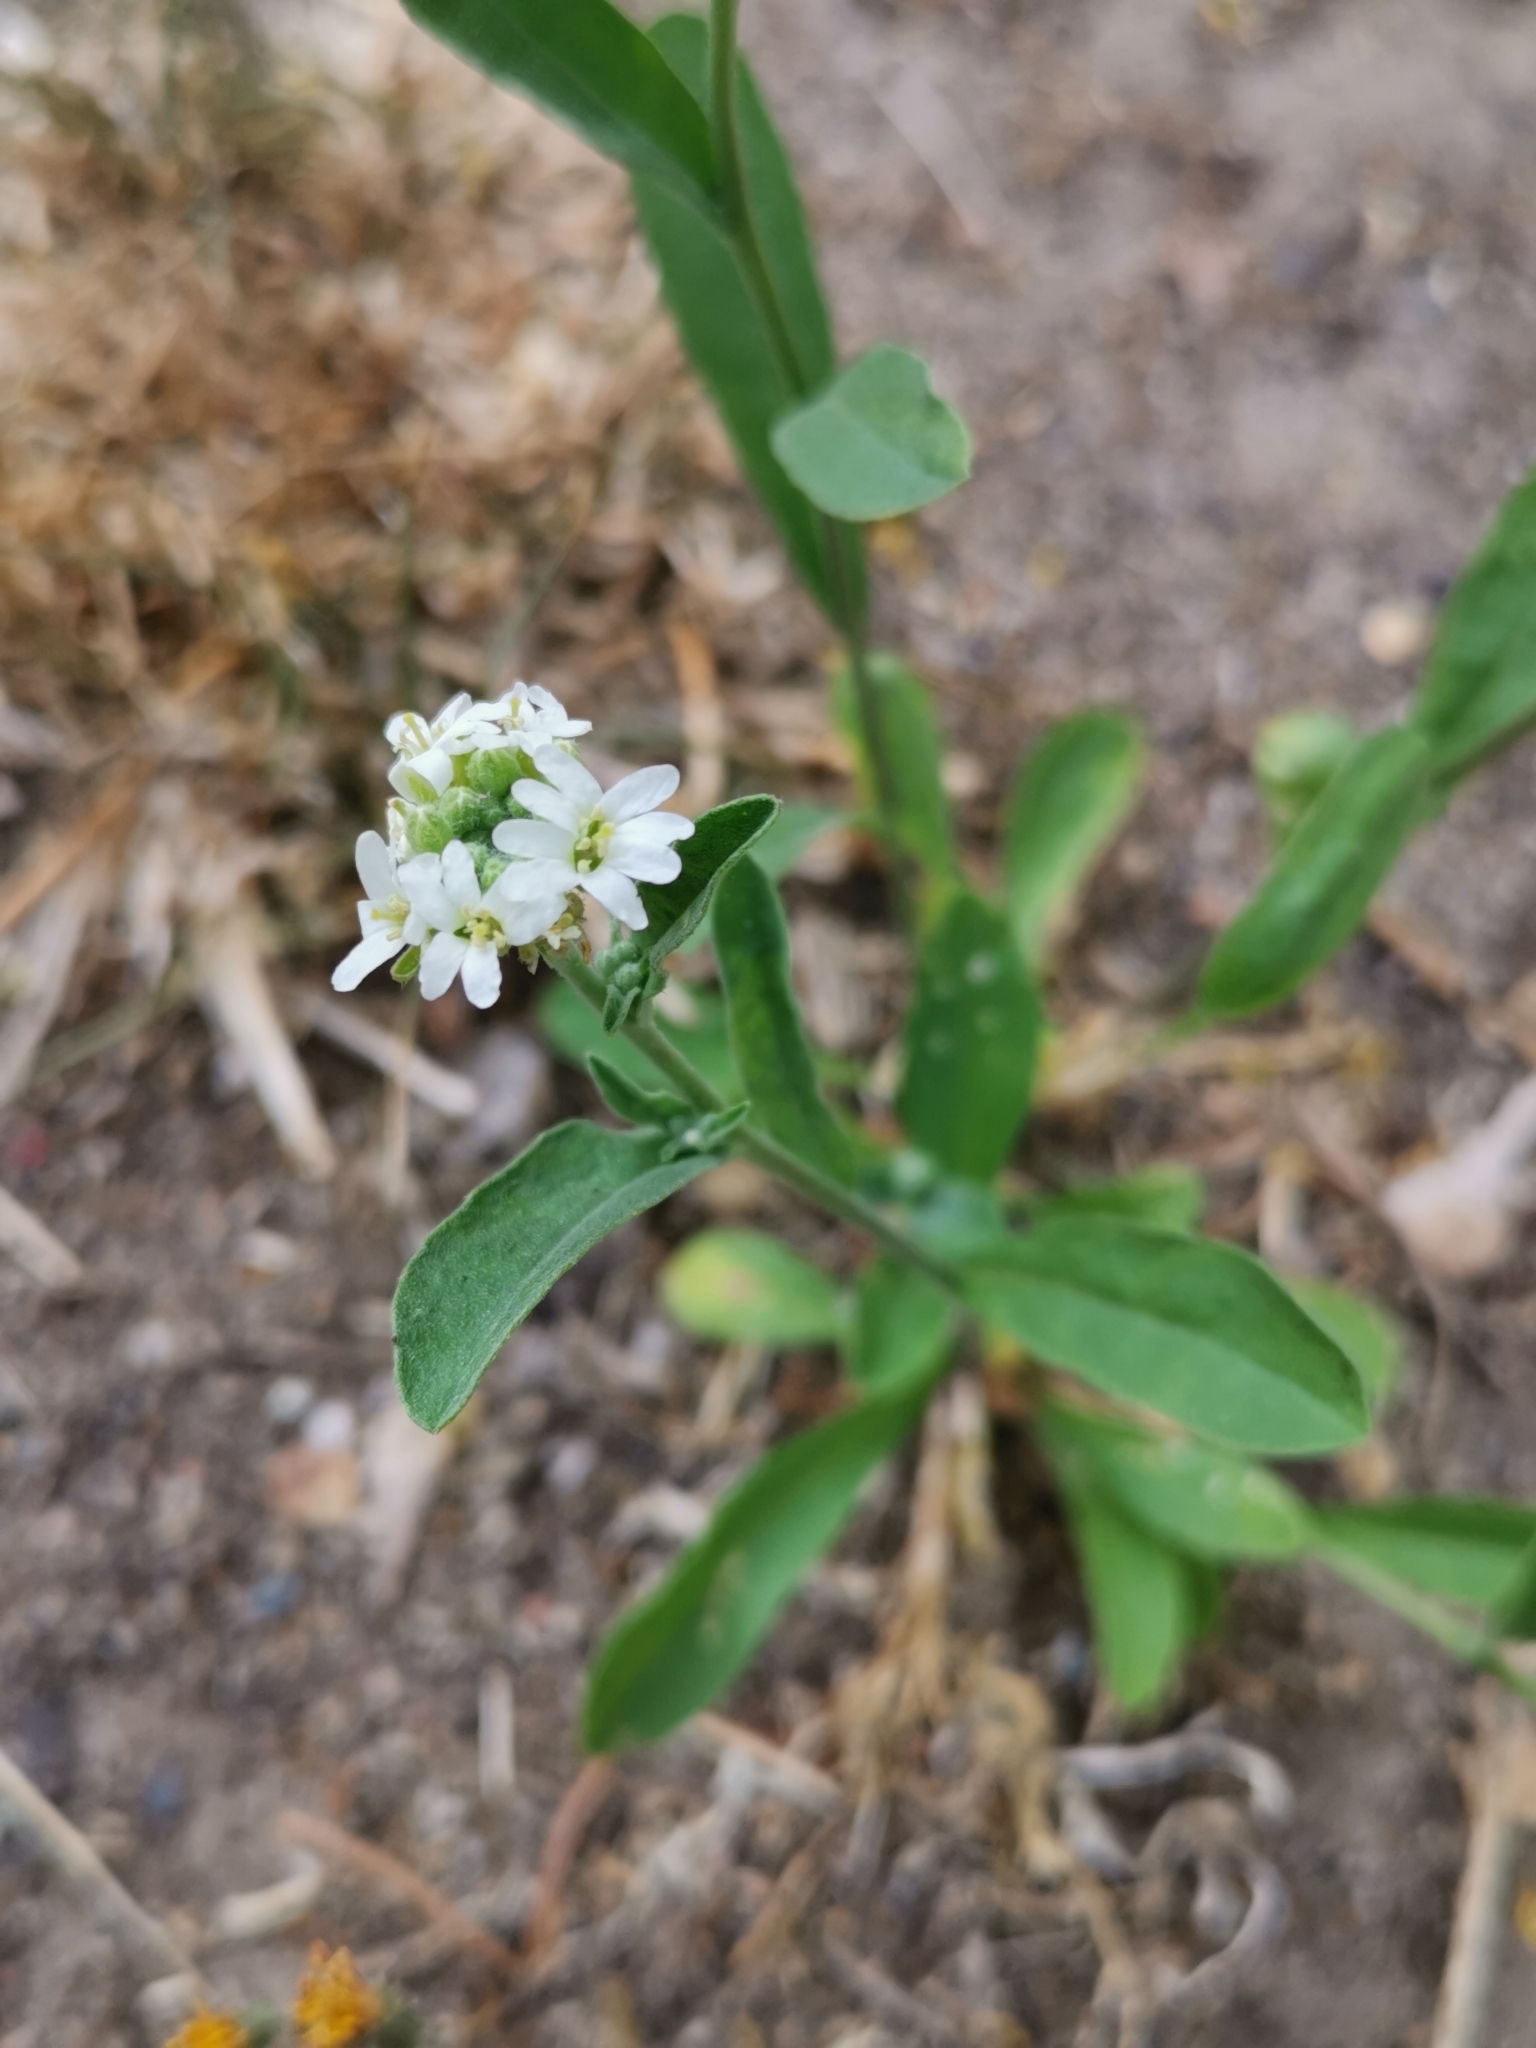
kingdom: Plantae
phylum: Tracheophyta
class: Magnoliopsida
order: Brassicales
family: Brassicaceae
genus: Berteroa
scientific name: Berteroa incana
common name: Hoary alison
